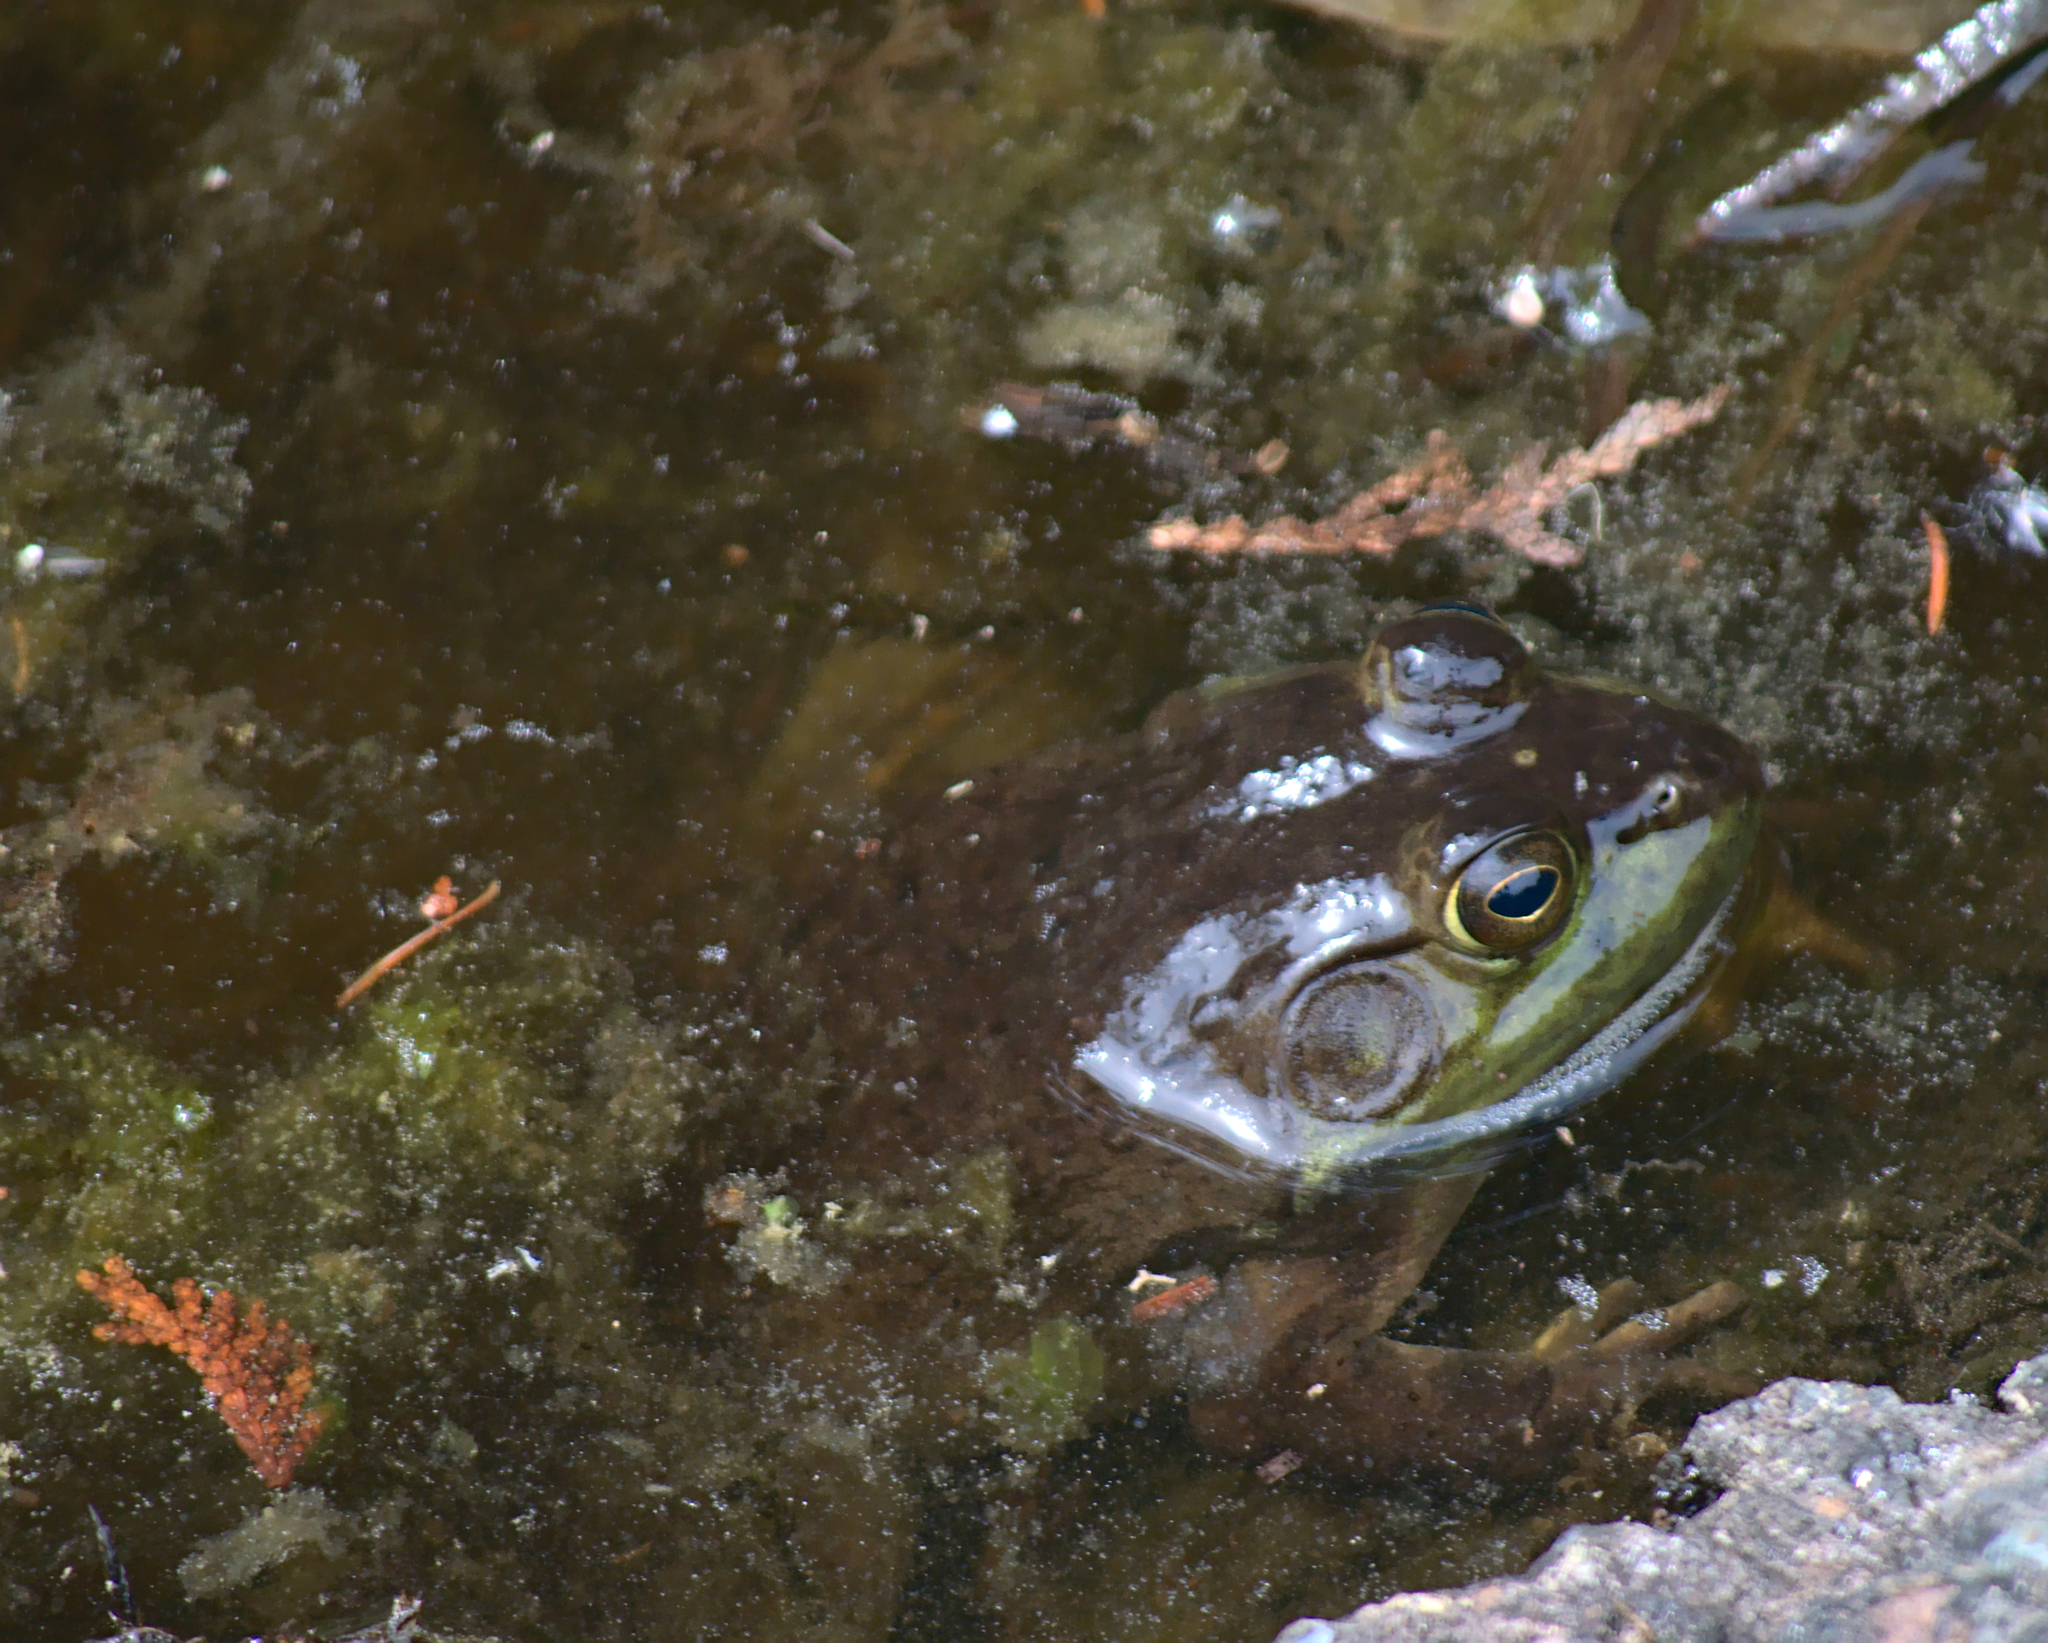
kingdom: Animalia
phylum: Chordata
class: Amphibia
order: Anura
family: Ranidae
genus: Lithobates
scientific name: Lithobates catesbeianus
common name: American bullfrog
